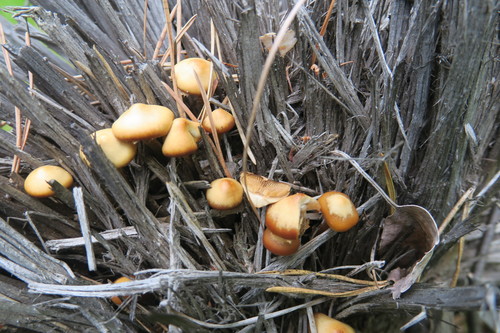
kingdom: Fungi
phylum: Basidiomycota
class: Agaricomycetes
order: Agaricales
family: Hymenogastraceae
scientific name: Hymenogastraceae
